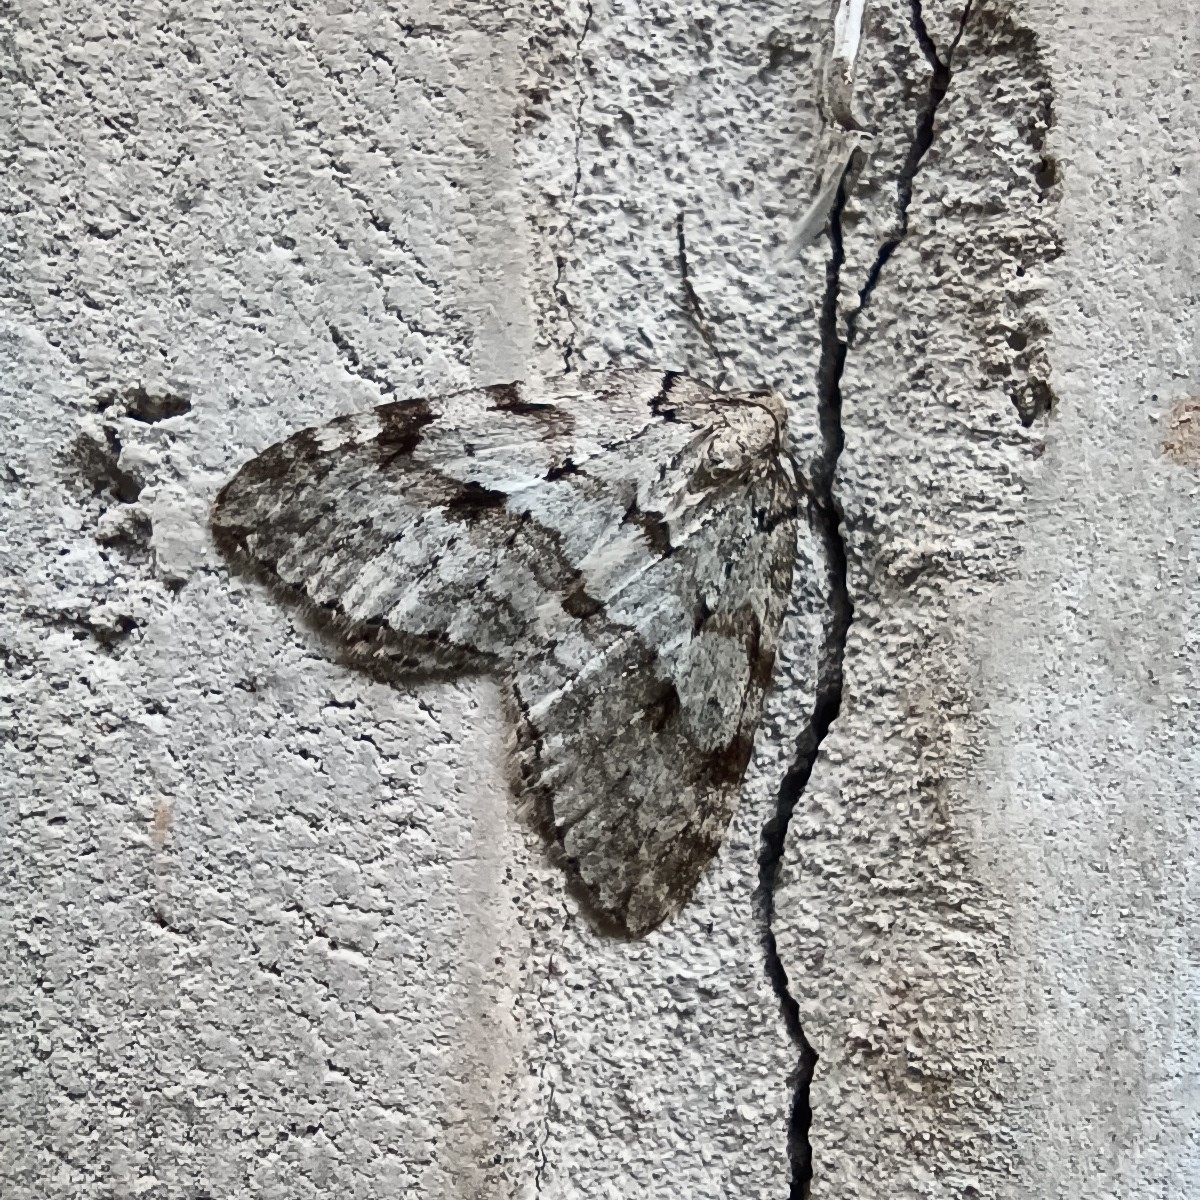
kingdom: Animalia
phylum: Arthropoda
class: Insecta
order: Lepidoptera
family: Geometridae
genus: Epirrita
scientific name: Epirrita autumnata
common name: Autumnal moth
